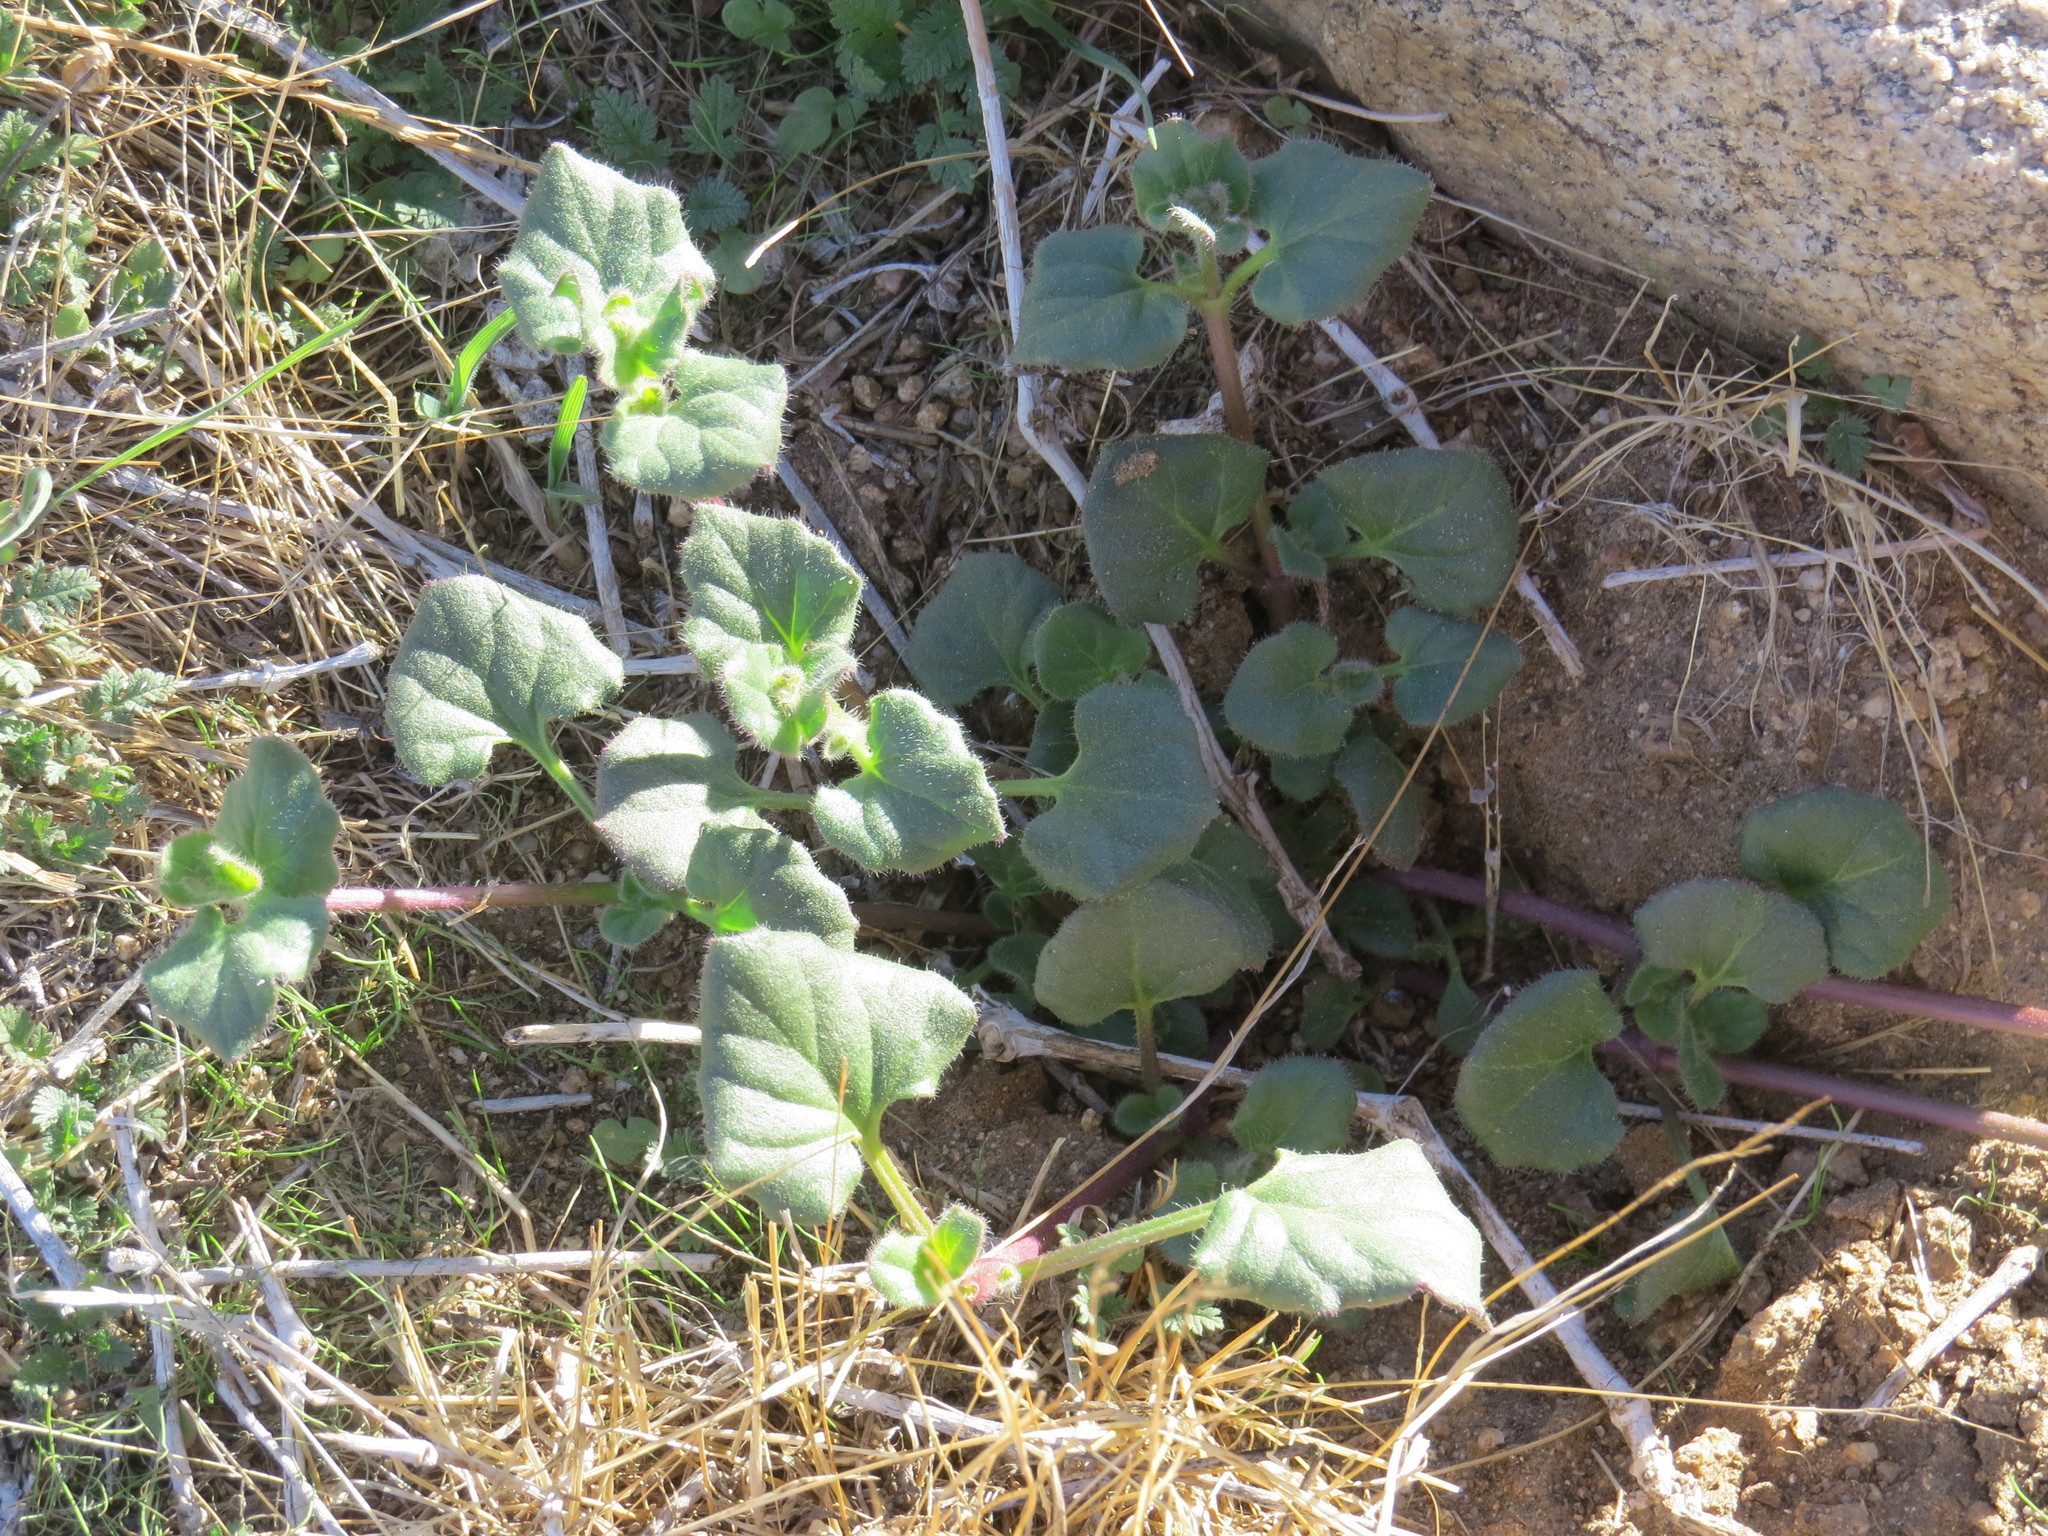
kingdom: Plantae
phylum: Tracheophyta
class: Magnoliopsida
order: Caryophyllales
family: Nyctaginaceae
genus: Mirabilis
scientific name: Mirabilis laevis
